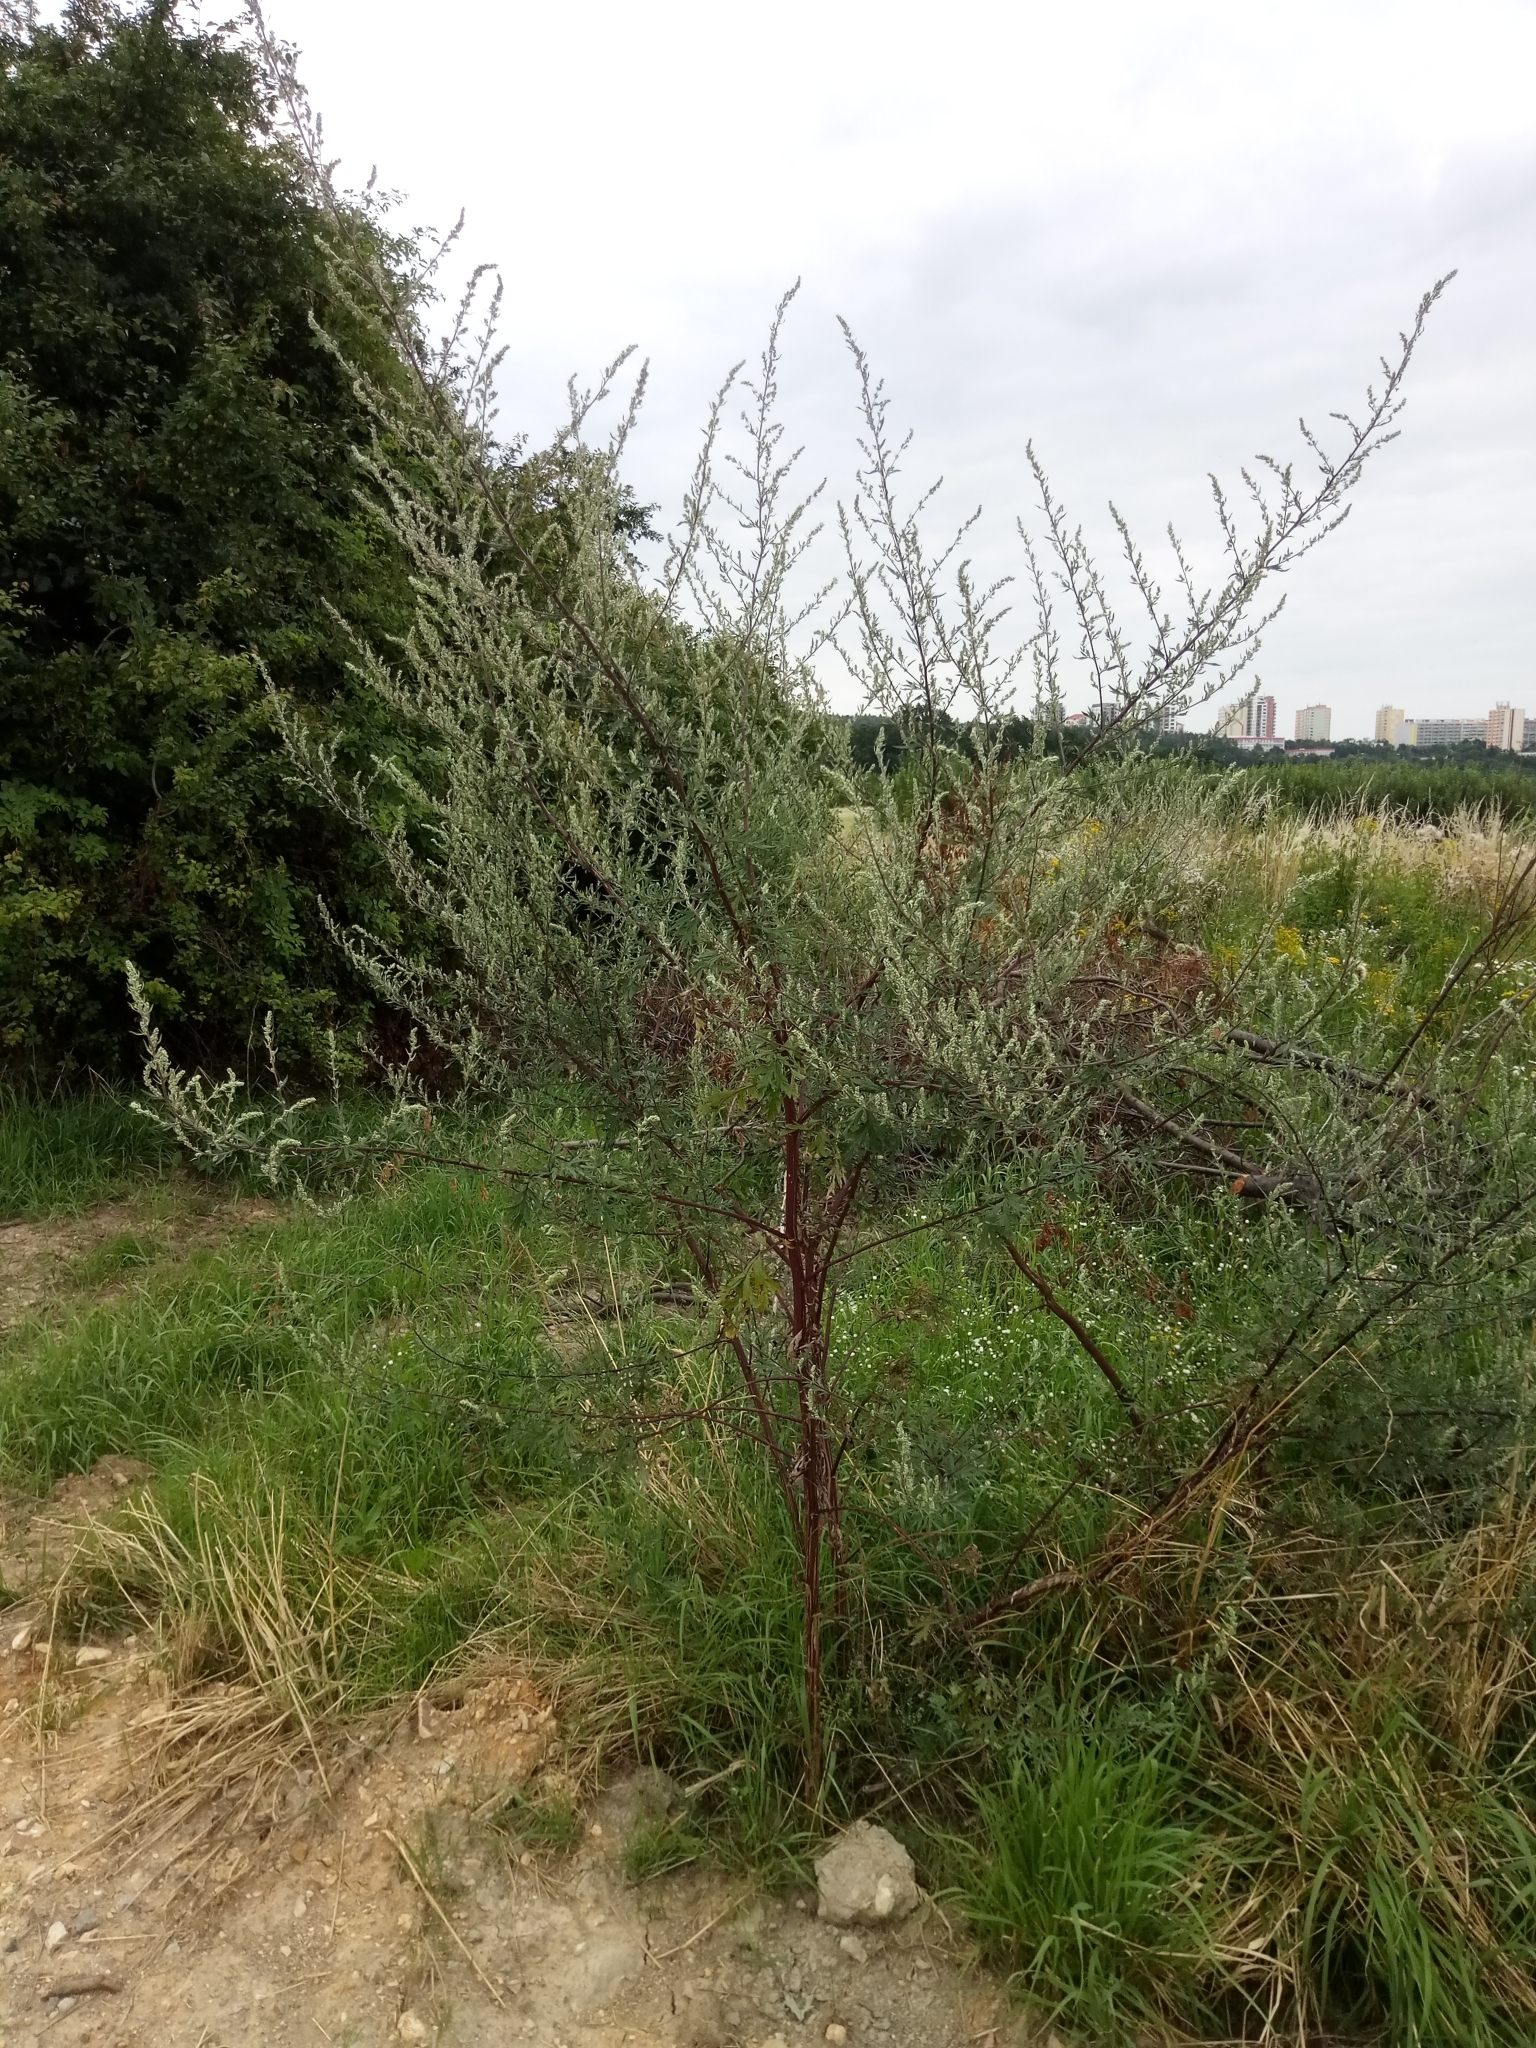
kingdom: Plantae
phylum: Tracheophyta
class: Magnoliopsida
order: Asterales
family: Asteraceae
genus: Artemisia
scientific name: Artemisia vulgaris
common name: Mugwort
